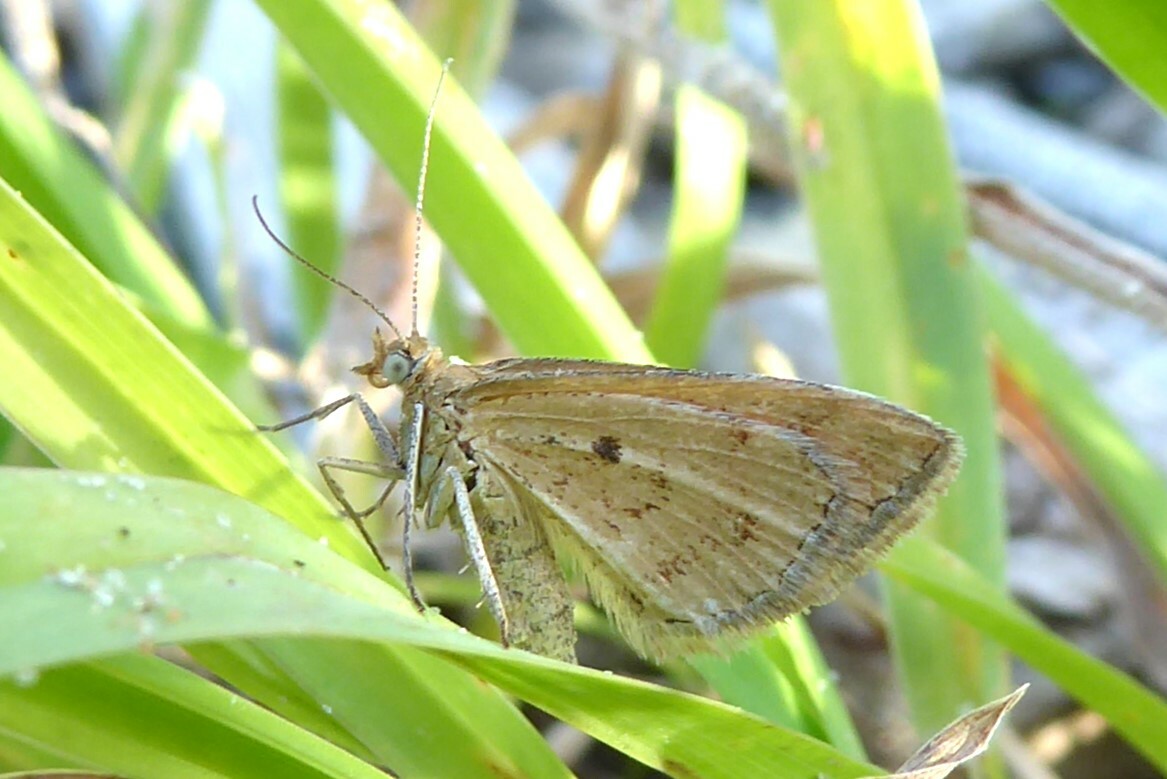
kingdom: Animalia
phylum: Arthropoda
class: Insecta
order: Lepidoptera
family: Geometridae
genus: Asaphodes
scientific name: Asaphodes abrogata
